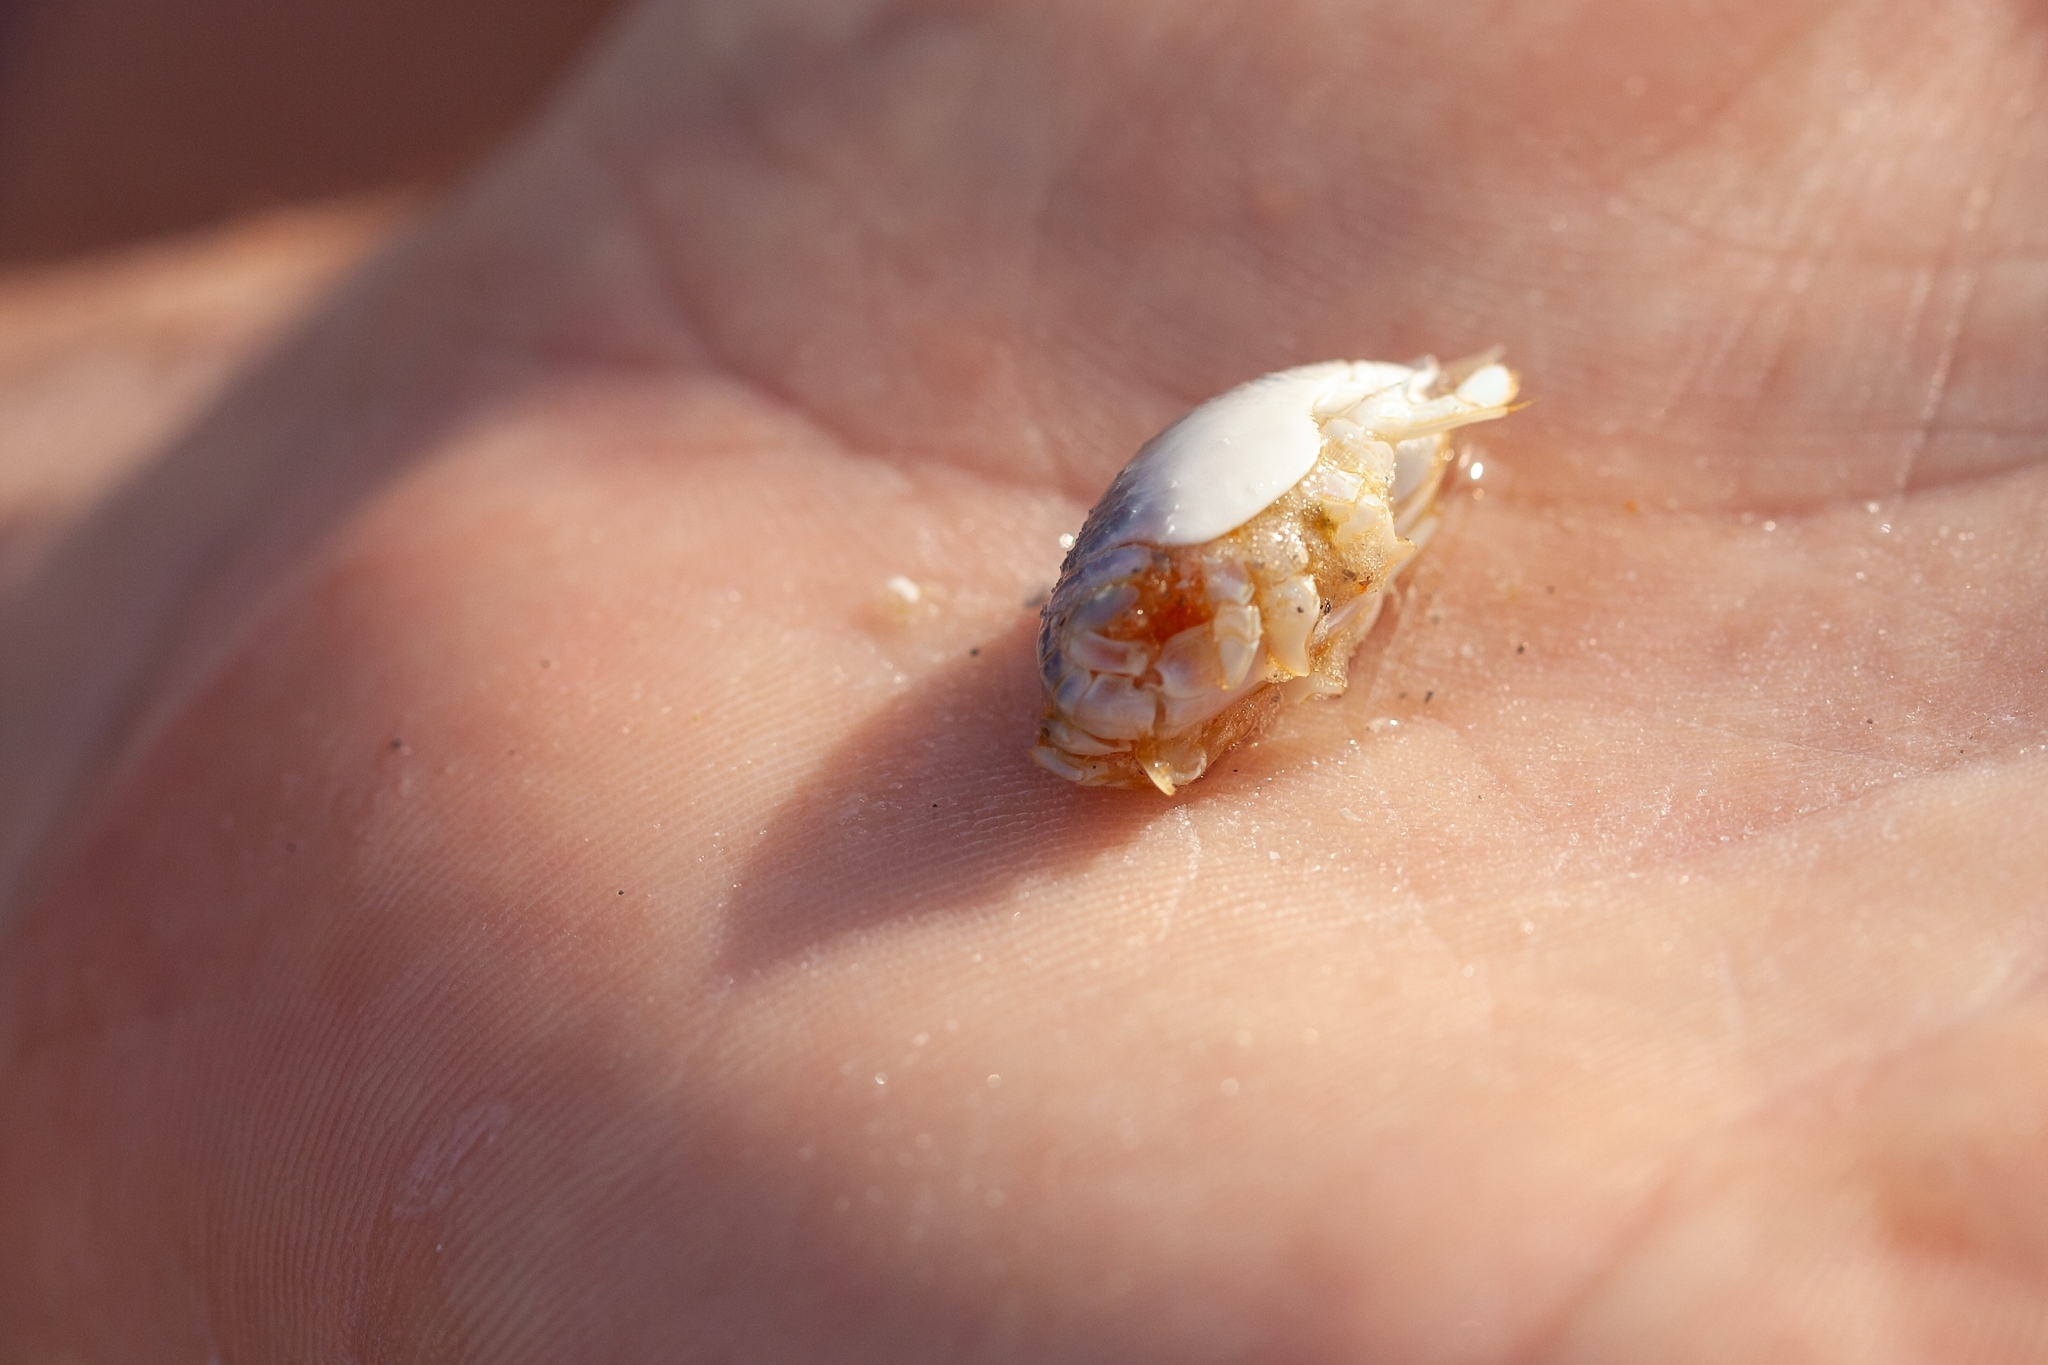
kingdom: Animalia
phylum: Arthropoda
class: Malacostraca
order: Decapoda
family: Hippidae
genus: Emerita
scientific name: Emerita talpoida
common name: Atlantic sand crab
